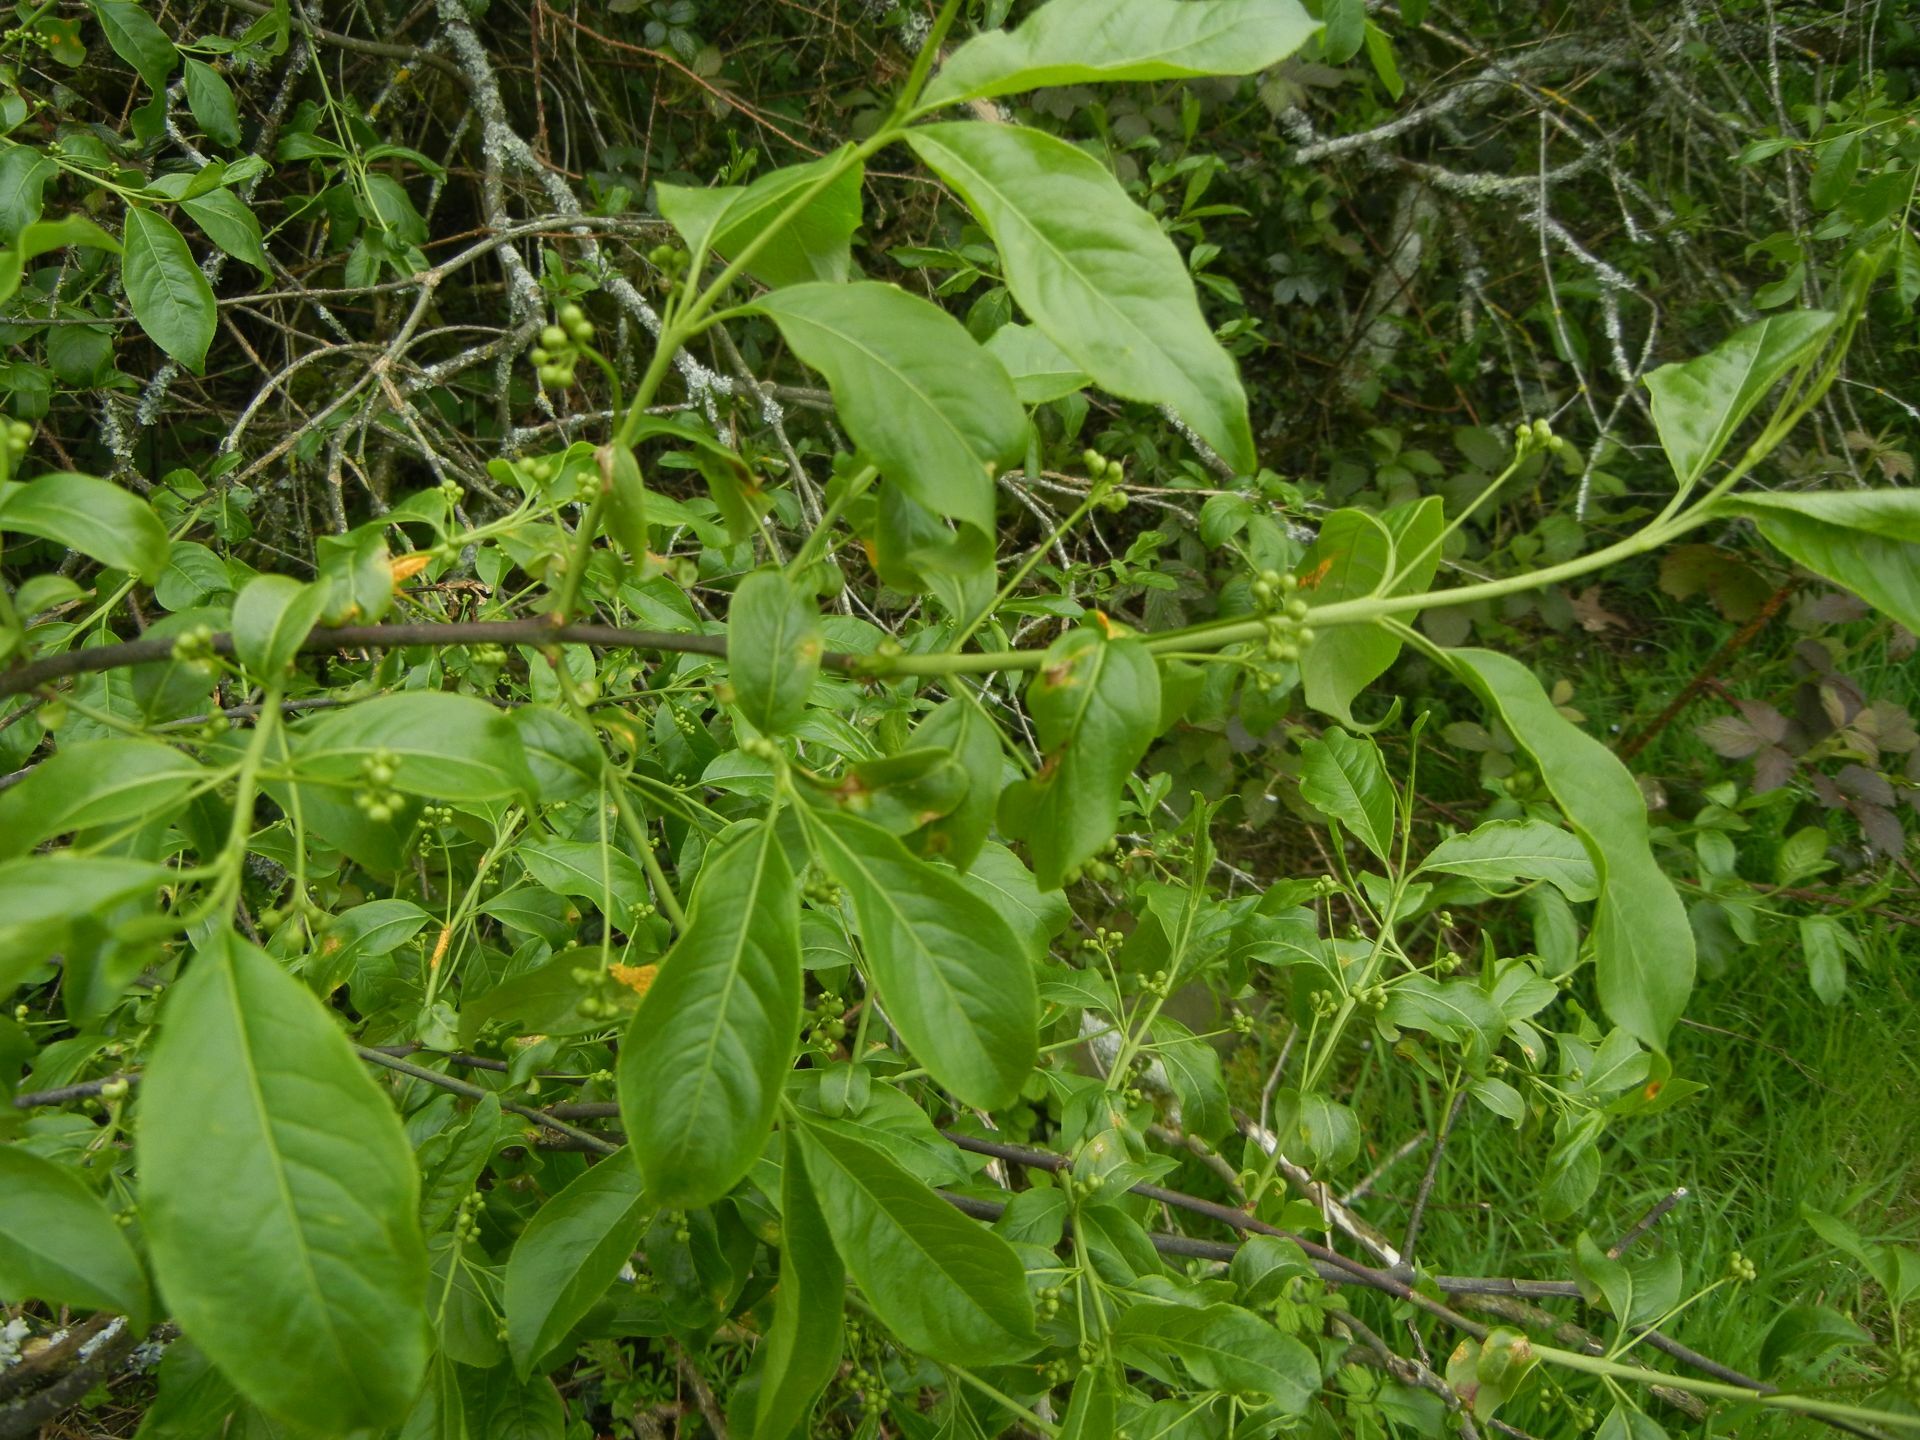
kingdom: Plantae
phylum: Tracheophyta
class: Magnoliopsida
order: Celastrales
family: Celastraceae
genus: Euonymus
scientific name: Euonymus europaeus
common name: Spindle
